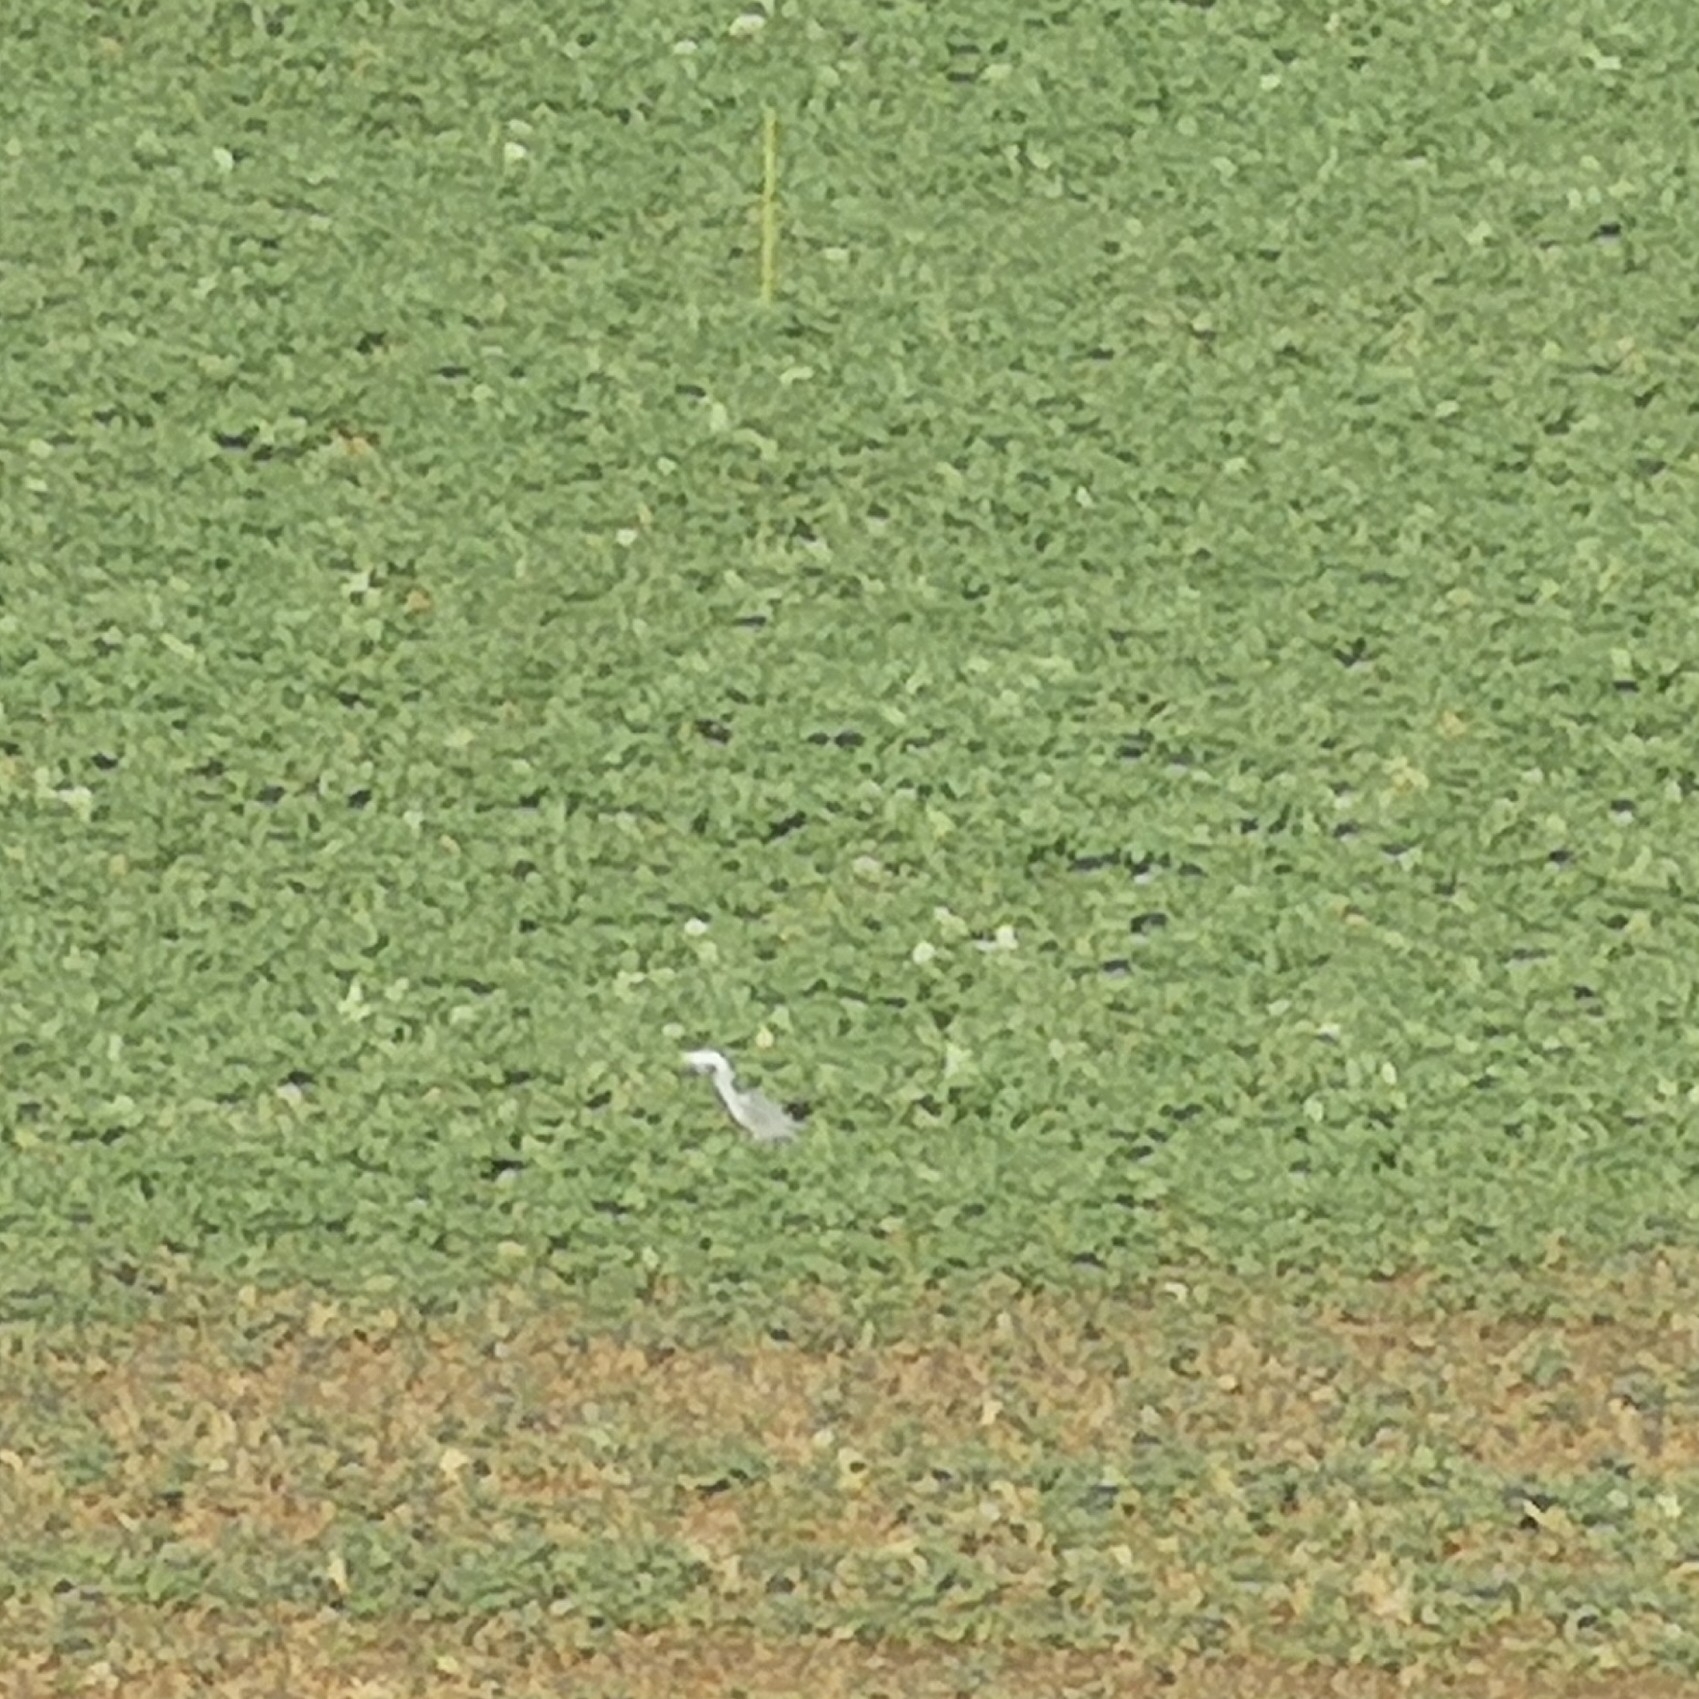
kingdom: Animalia
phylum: Chordata
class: Aves
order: Pelecaniformes
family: Ardeidae
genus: Ardea
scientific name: Ardea cinerea
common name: Grey heron
